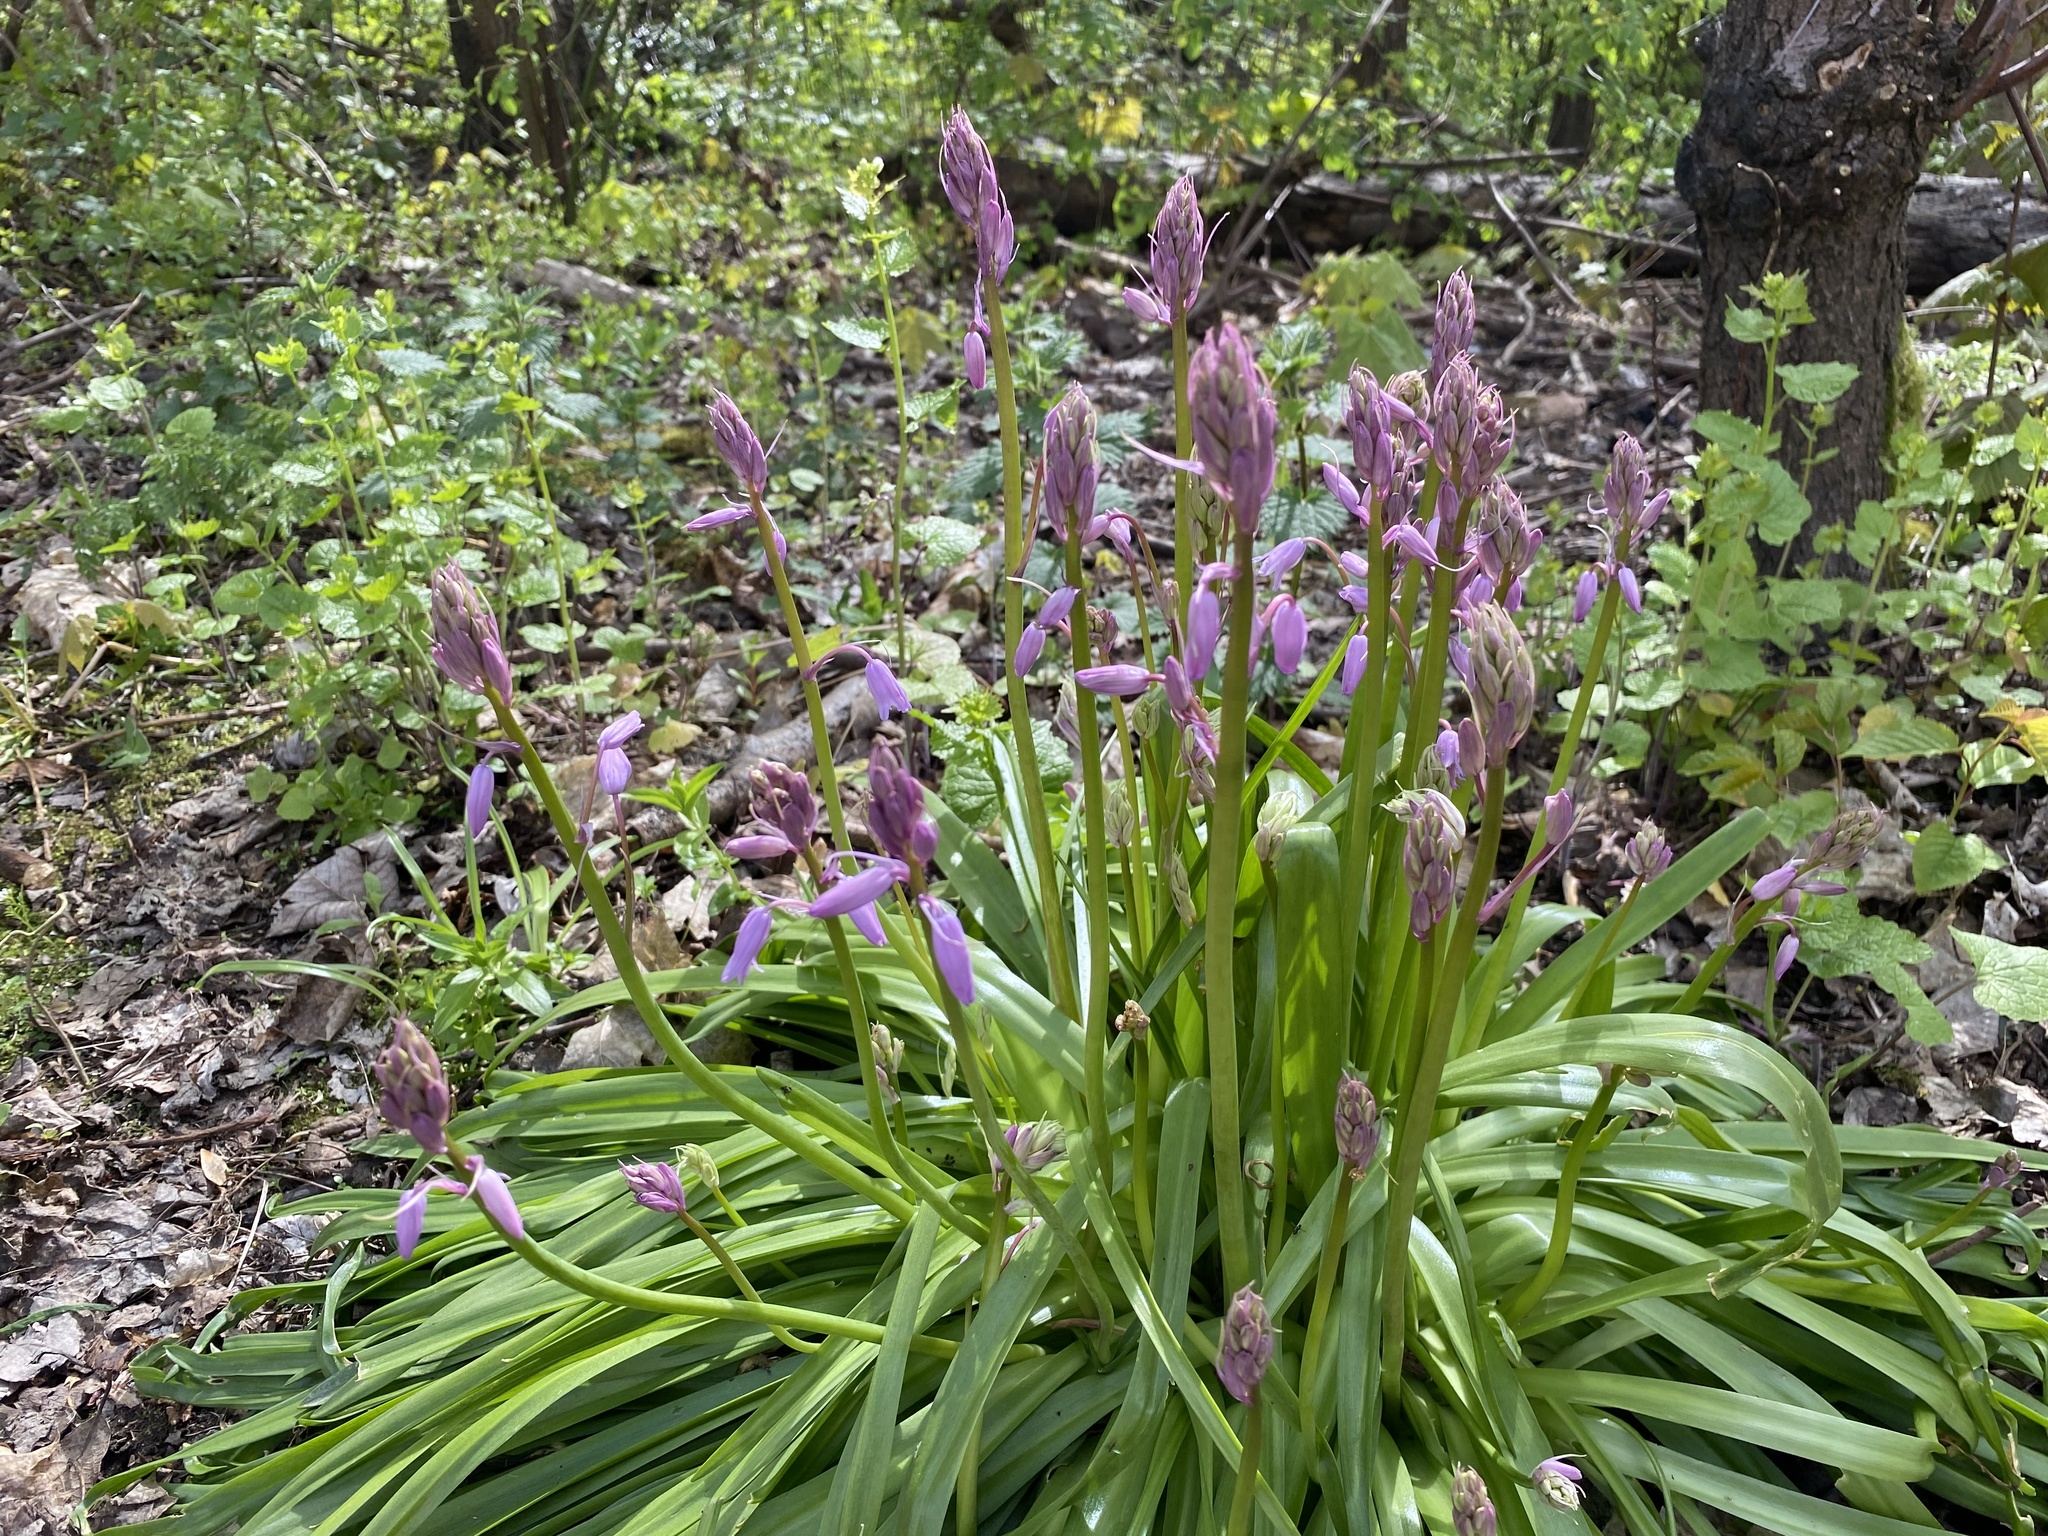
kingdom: Plantae
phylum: Tracheophyta
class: Liliopsida
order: Asparagales
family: Asparagaceae
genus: Hyacinthoides
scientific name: Hyacinthoides hispanica
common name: Spanish bluebell
